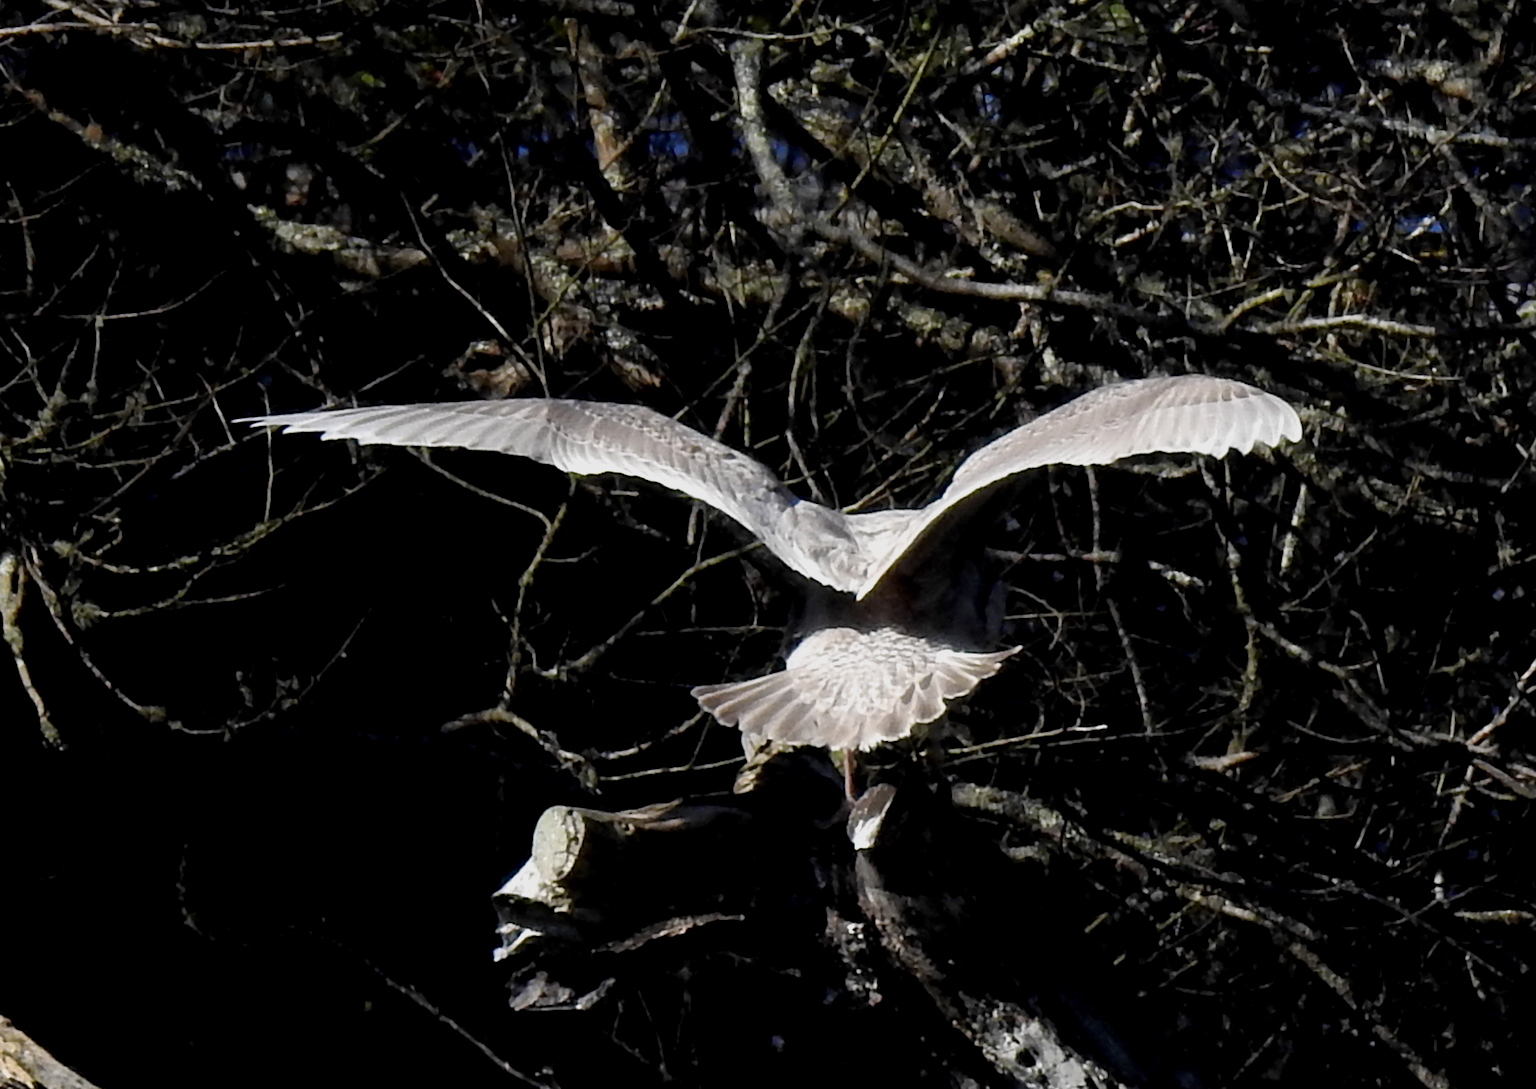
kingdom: Animalia
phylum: Chordata
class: Aves
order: Charadriiformes
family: Laridae
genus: Larus
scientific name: Larus
